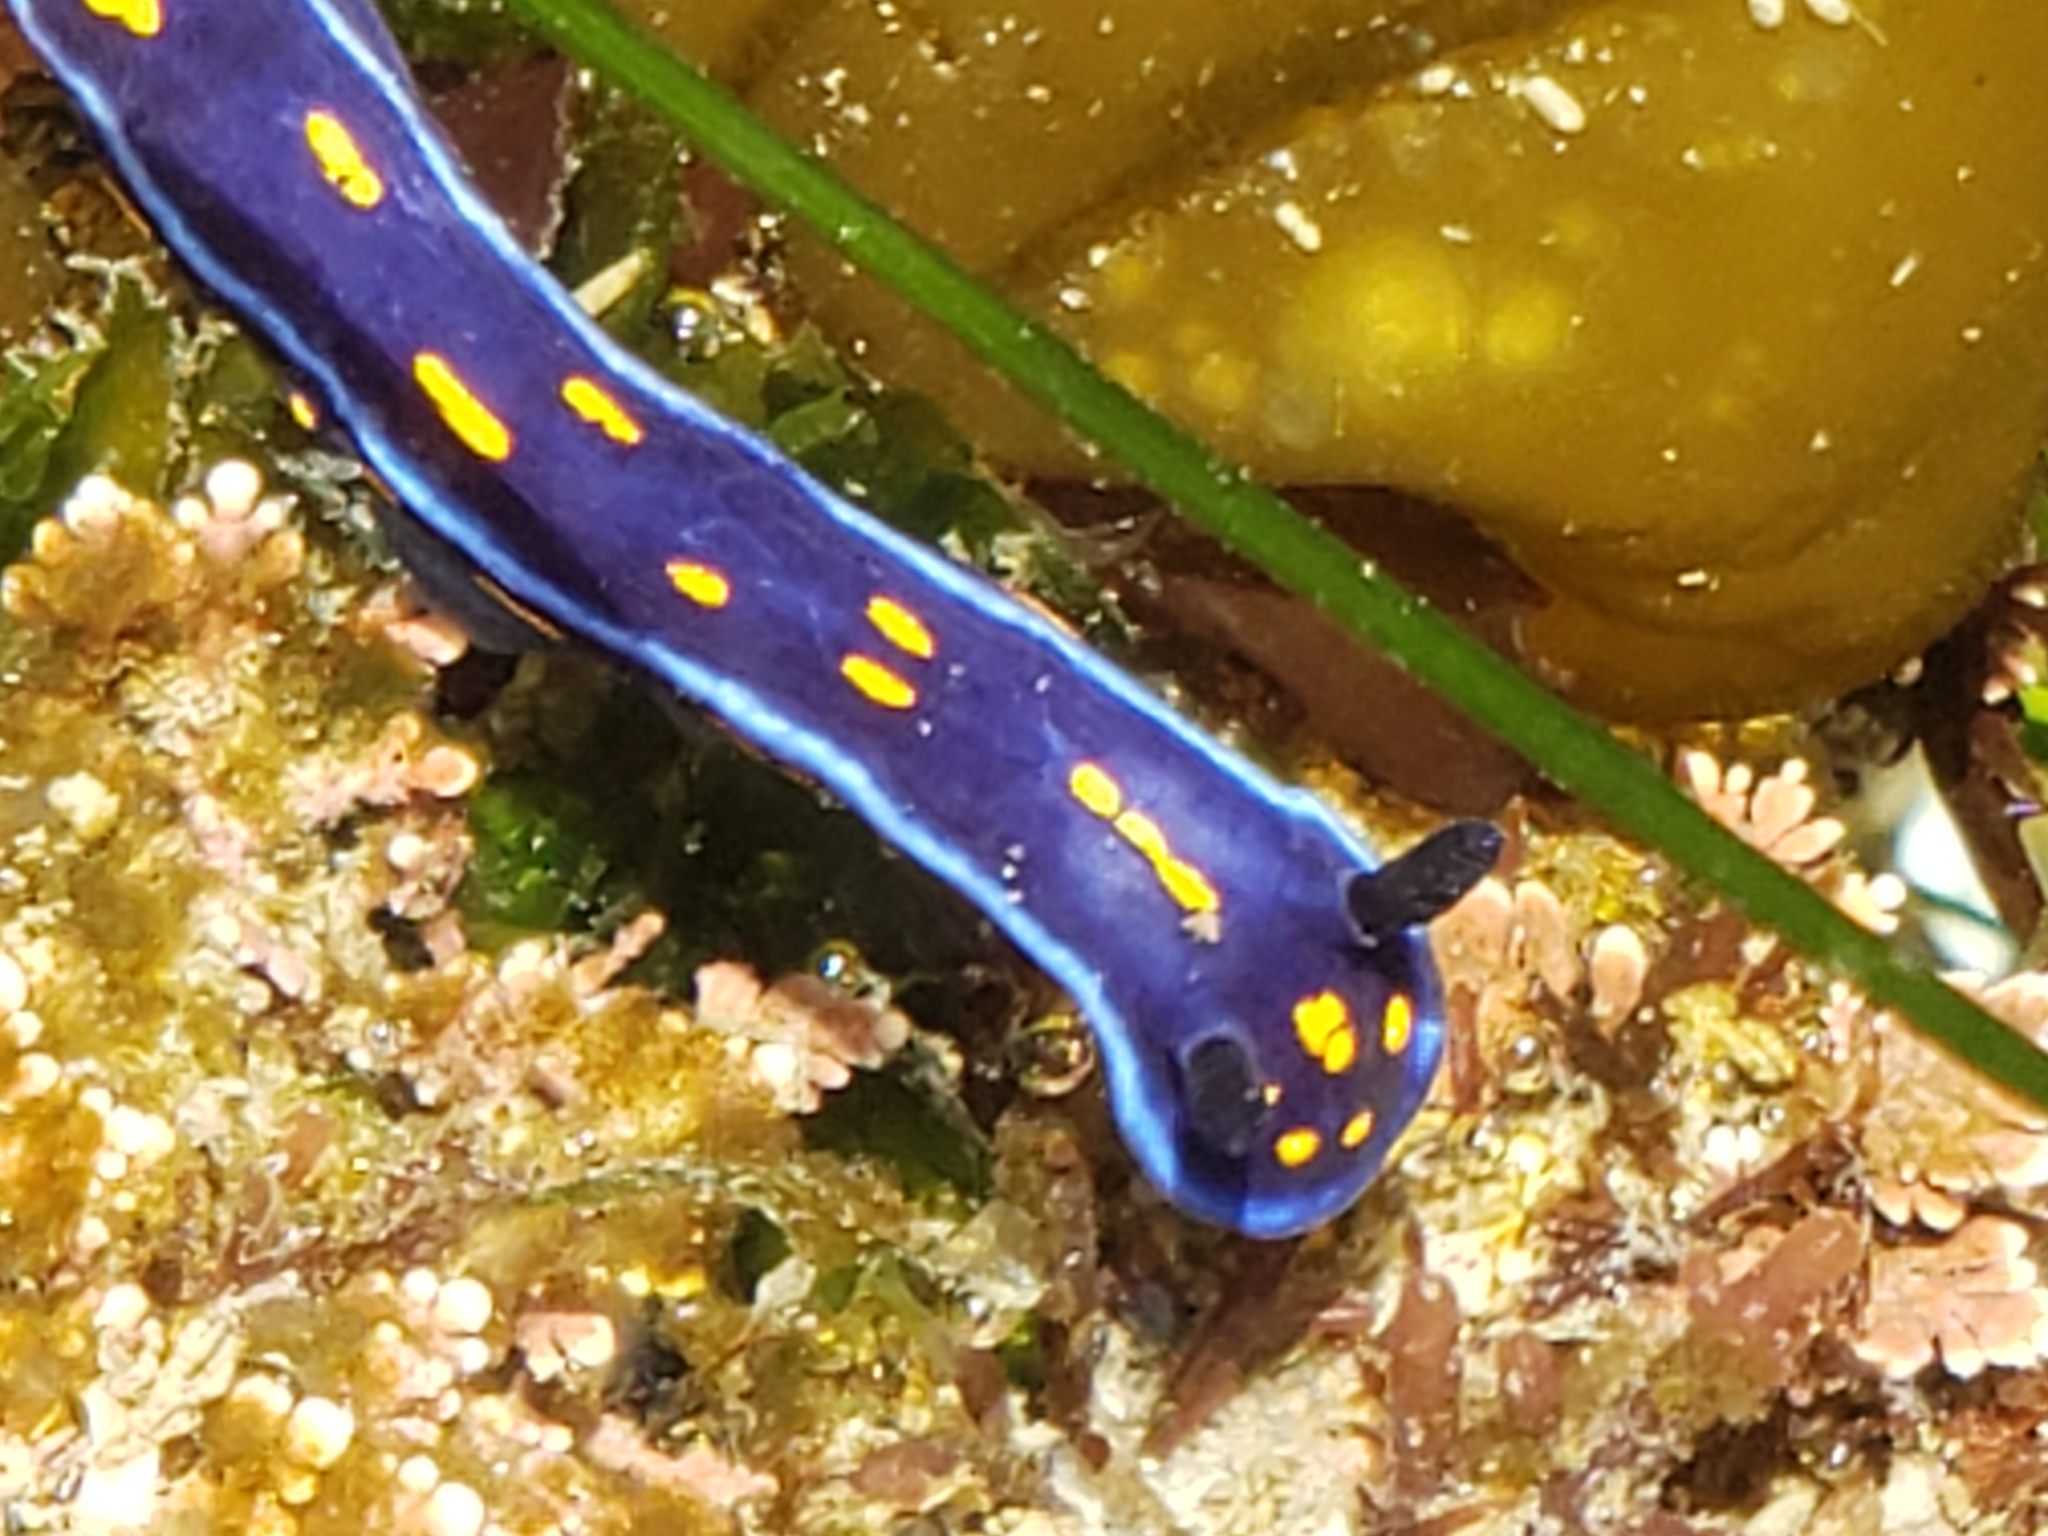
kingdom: Animalia
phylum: Mollusca
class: Gastropoda
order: Nudibranchia
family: Chromodorididae
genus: Felimare
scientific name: Felimare californiensis
